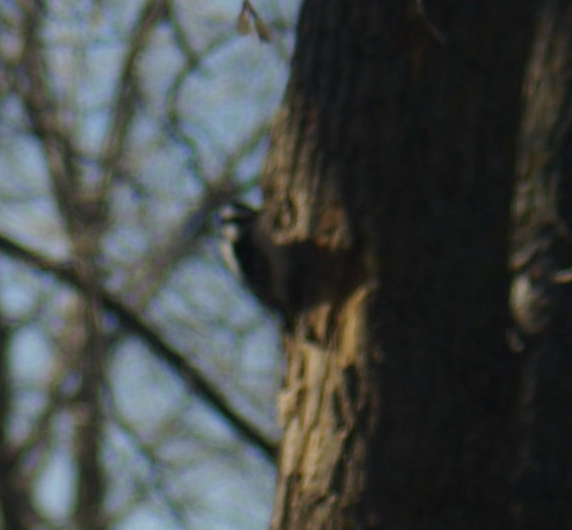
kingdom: Animalia
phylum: Chordata
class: Aves
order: Piciformes
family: Picidae
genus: Dryobates
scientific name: Dryobates pubescens
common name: Downy woodpecker
